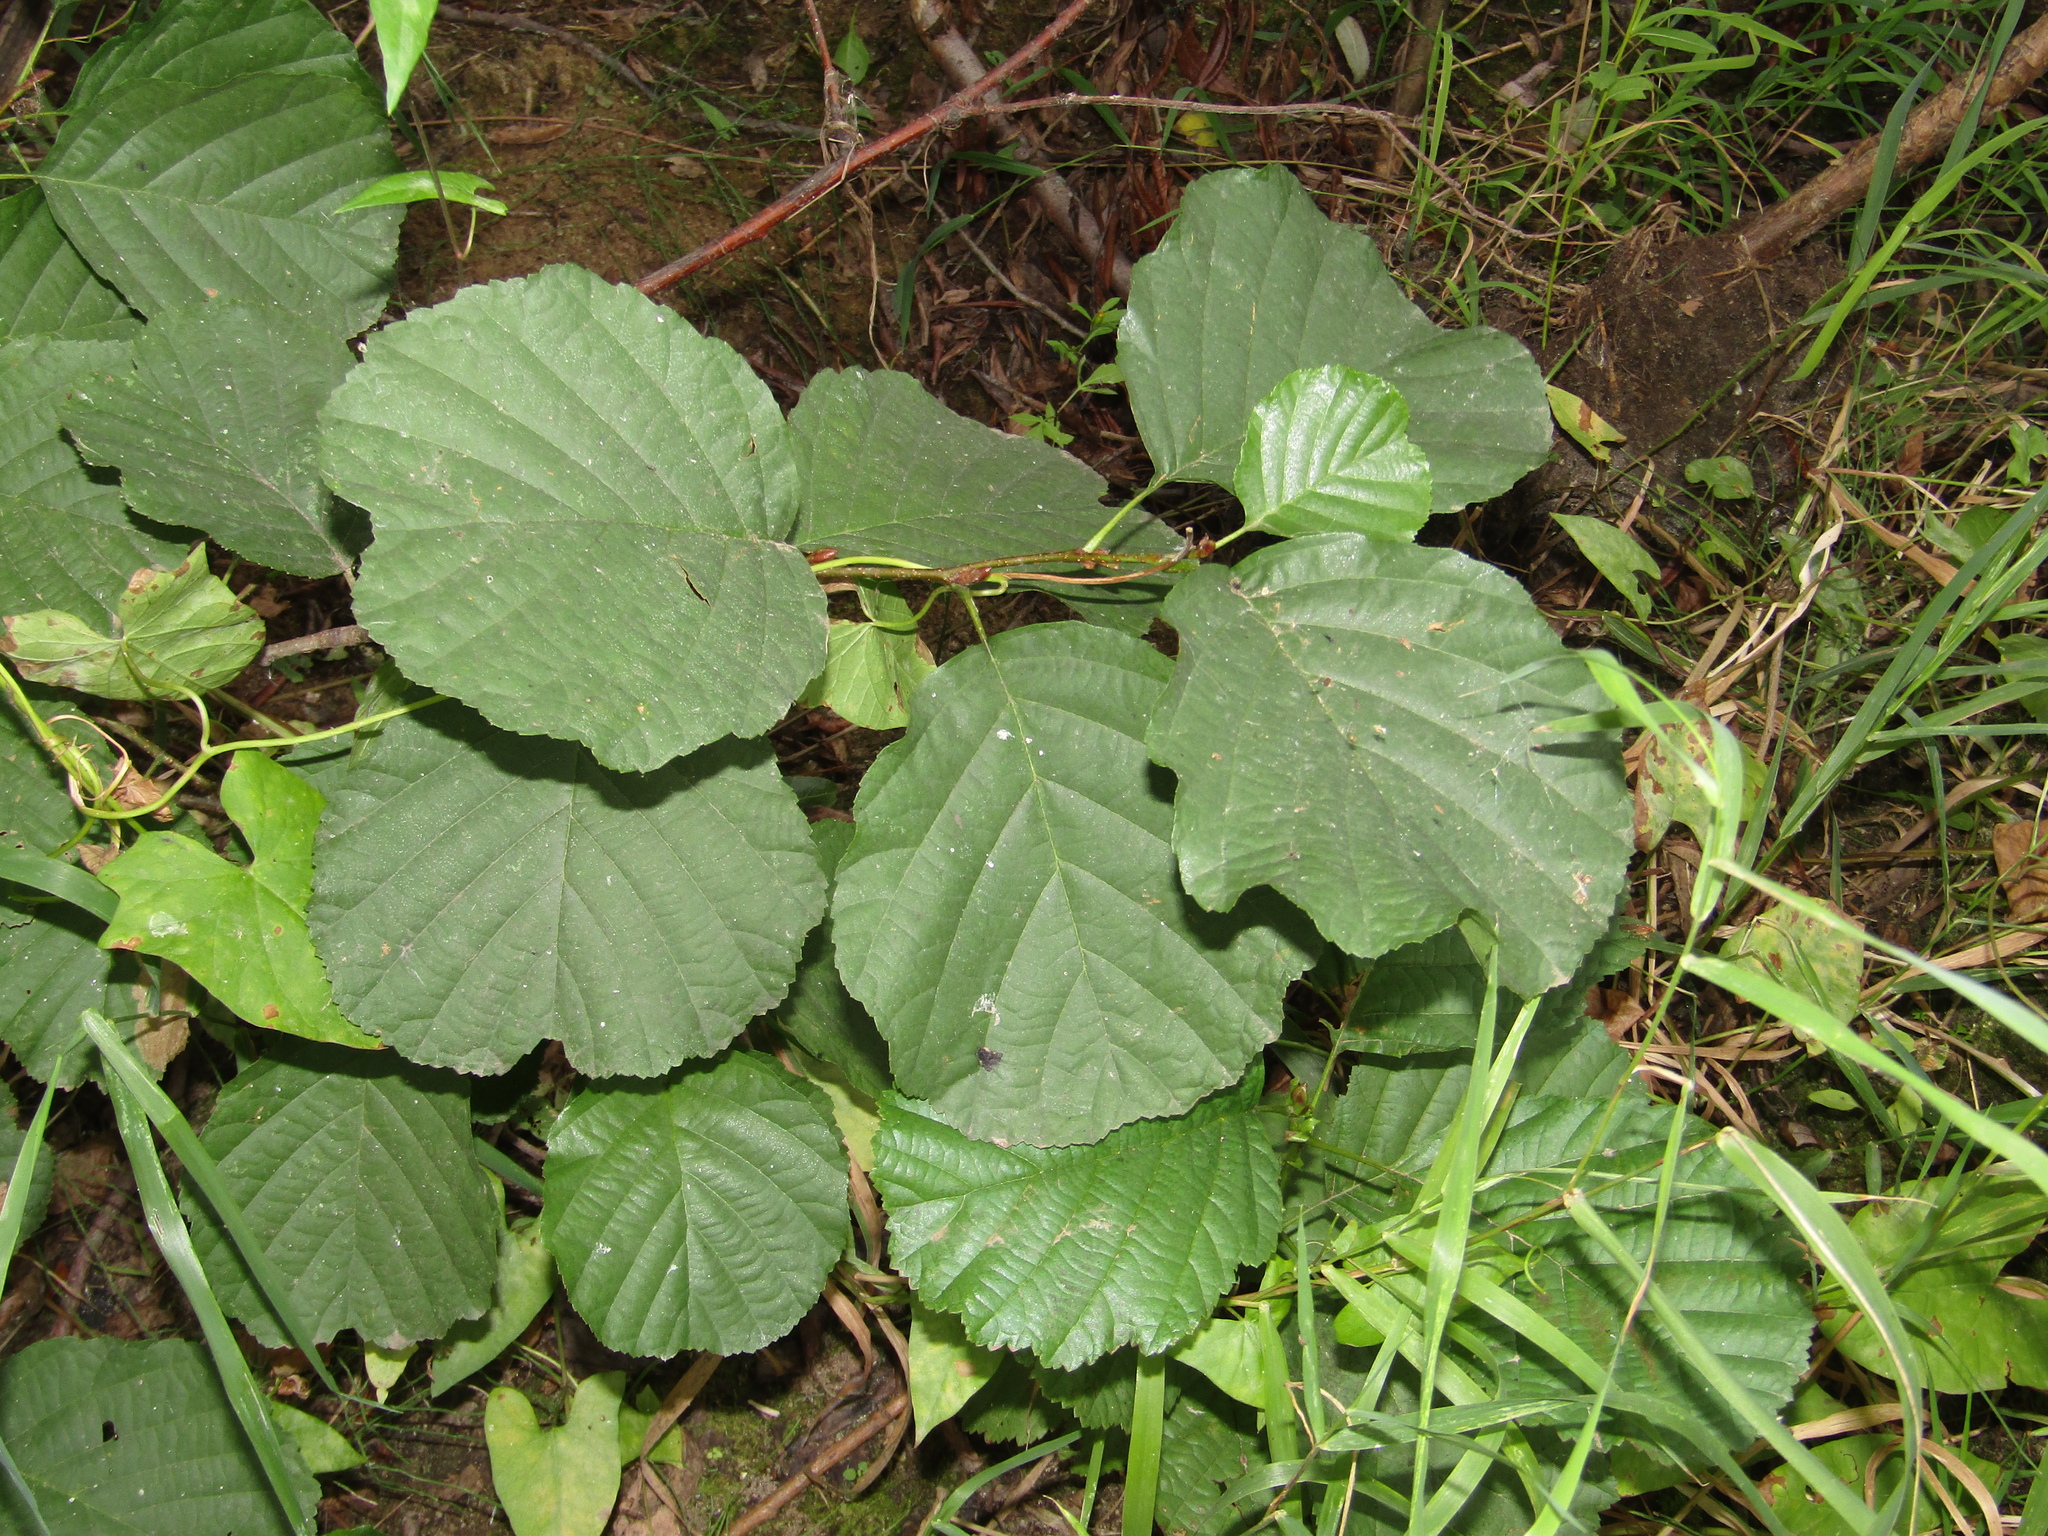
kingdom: Plantae
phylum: Tracheophyta
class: Magnoliopsida
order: Fagales
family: Betulaceae
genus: Alnus
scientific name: Alnus glutinosa
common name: Black alder
